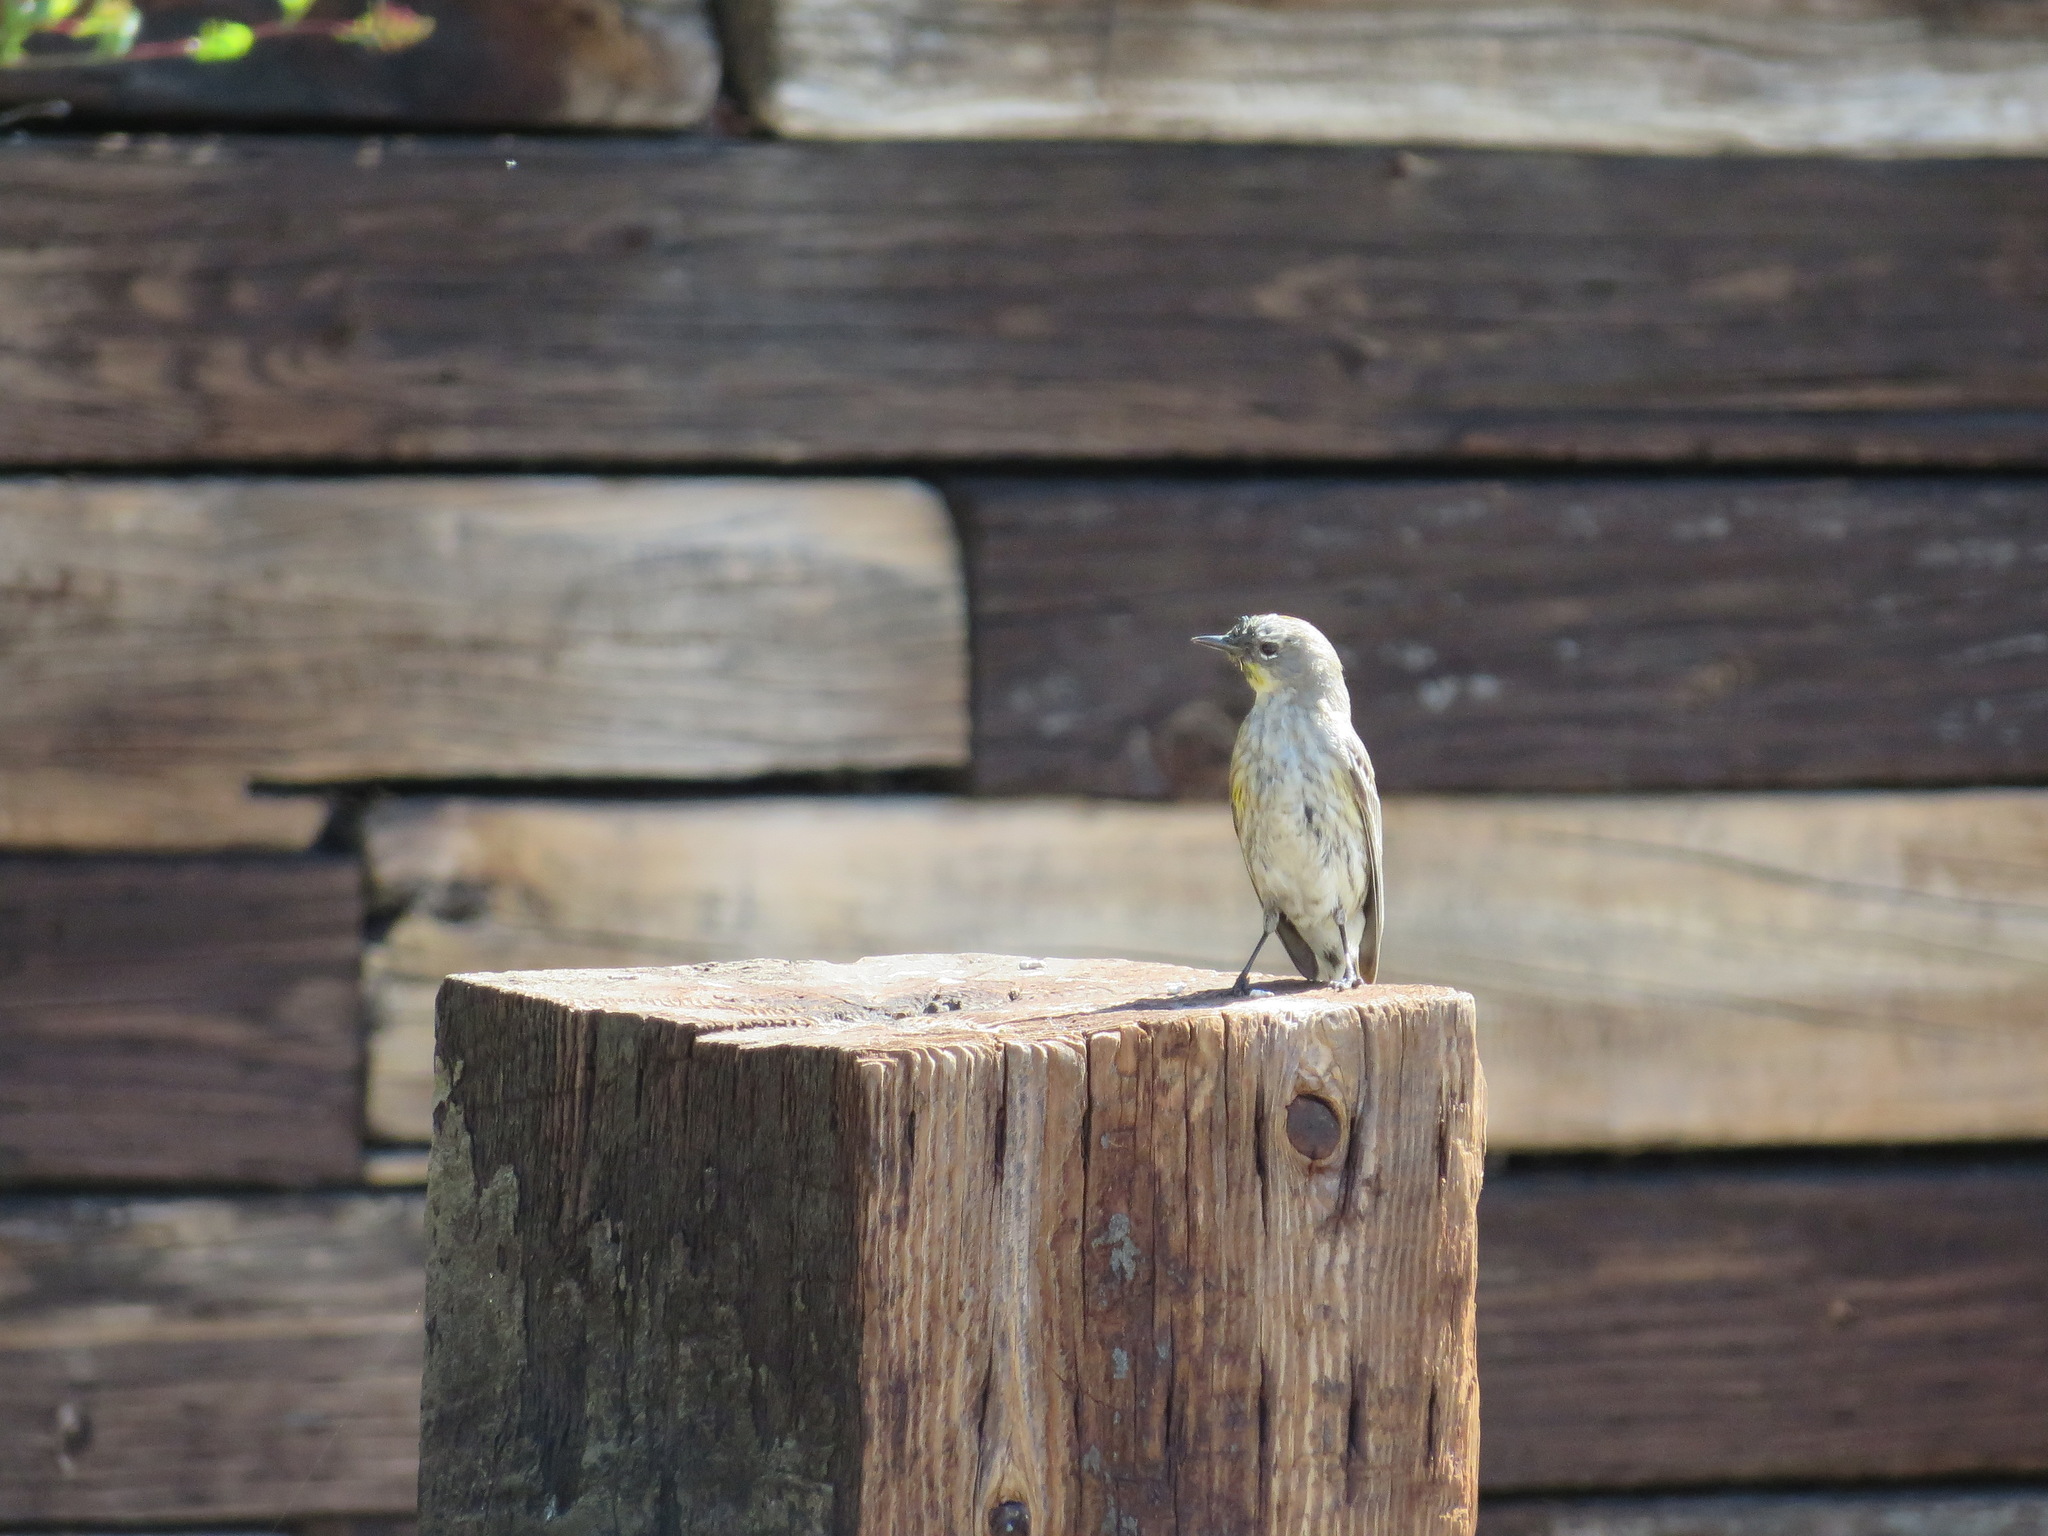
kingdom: Animalia
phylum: Chordata
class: Aves
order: Passeriformes
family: Parulidae
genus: Setophaga
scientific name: Setophaga coronata
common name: Myrtle warbler
